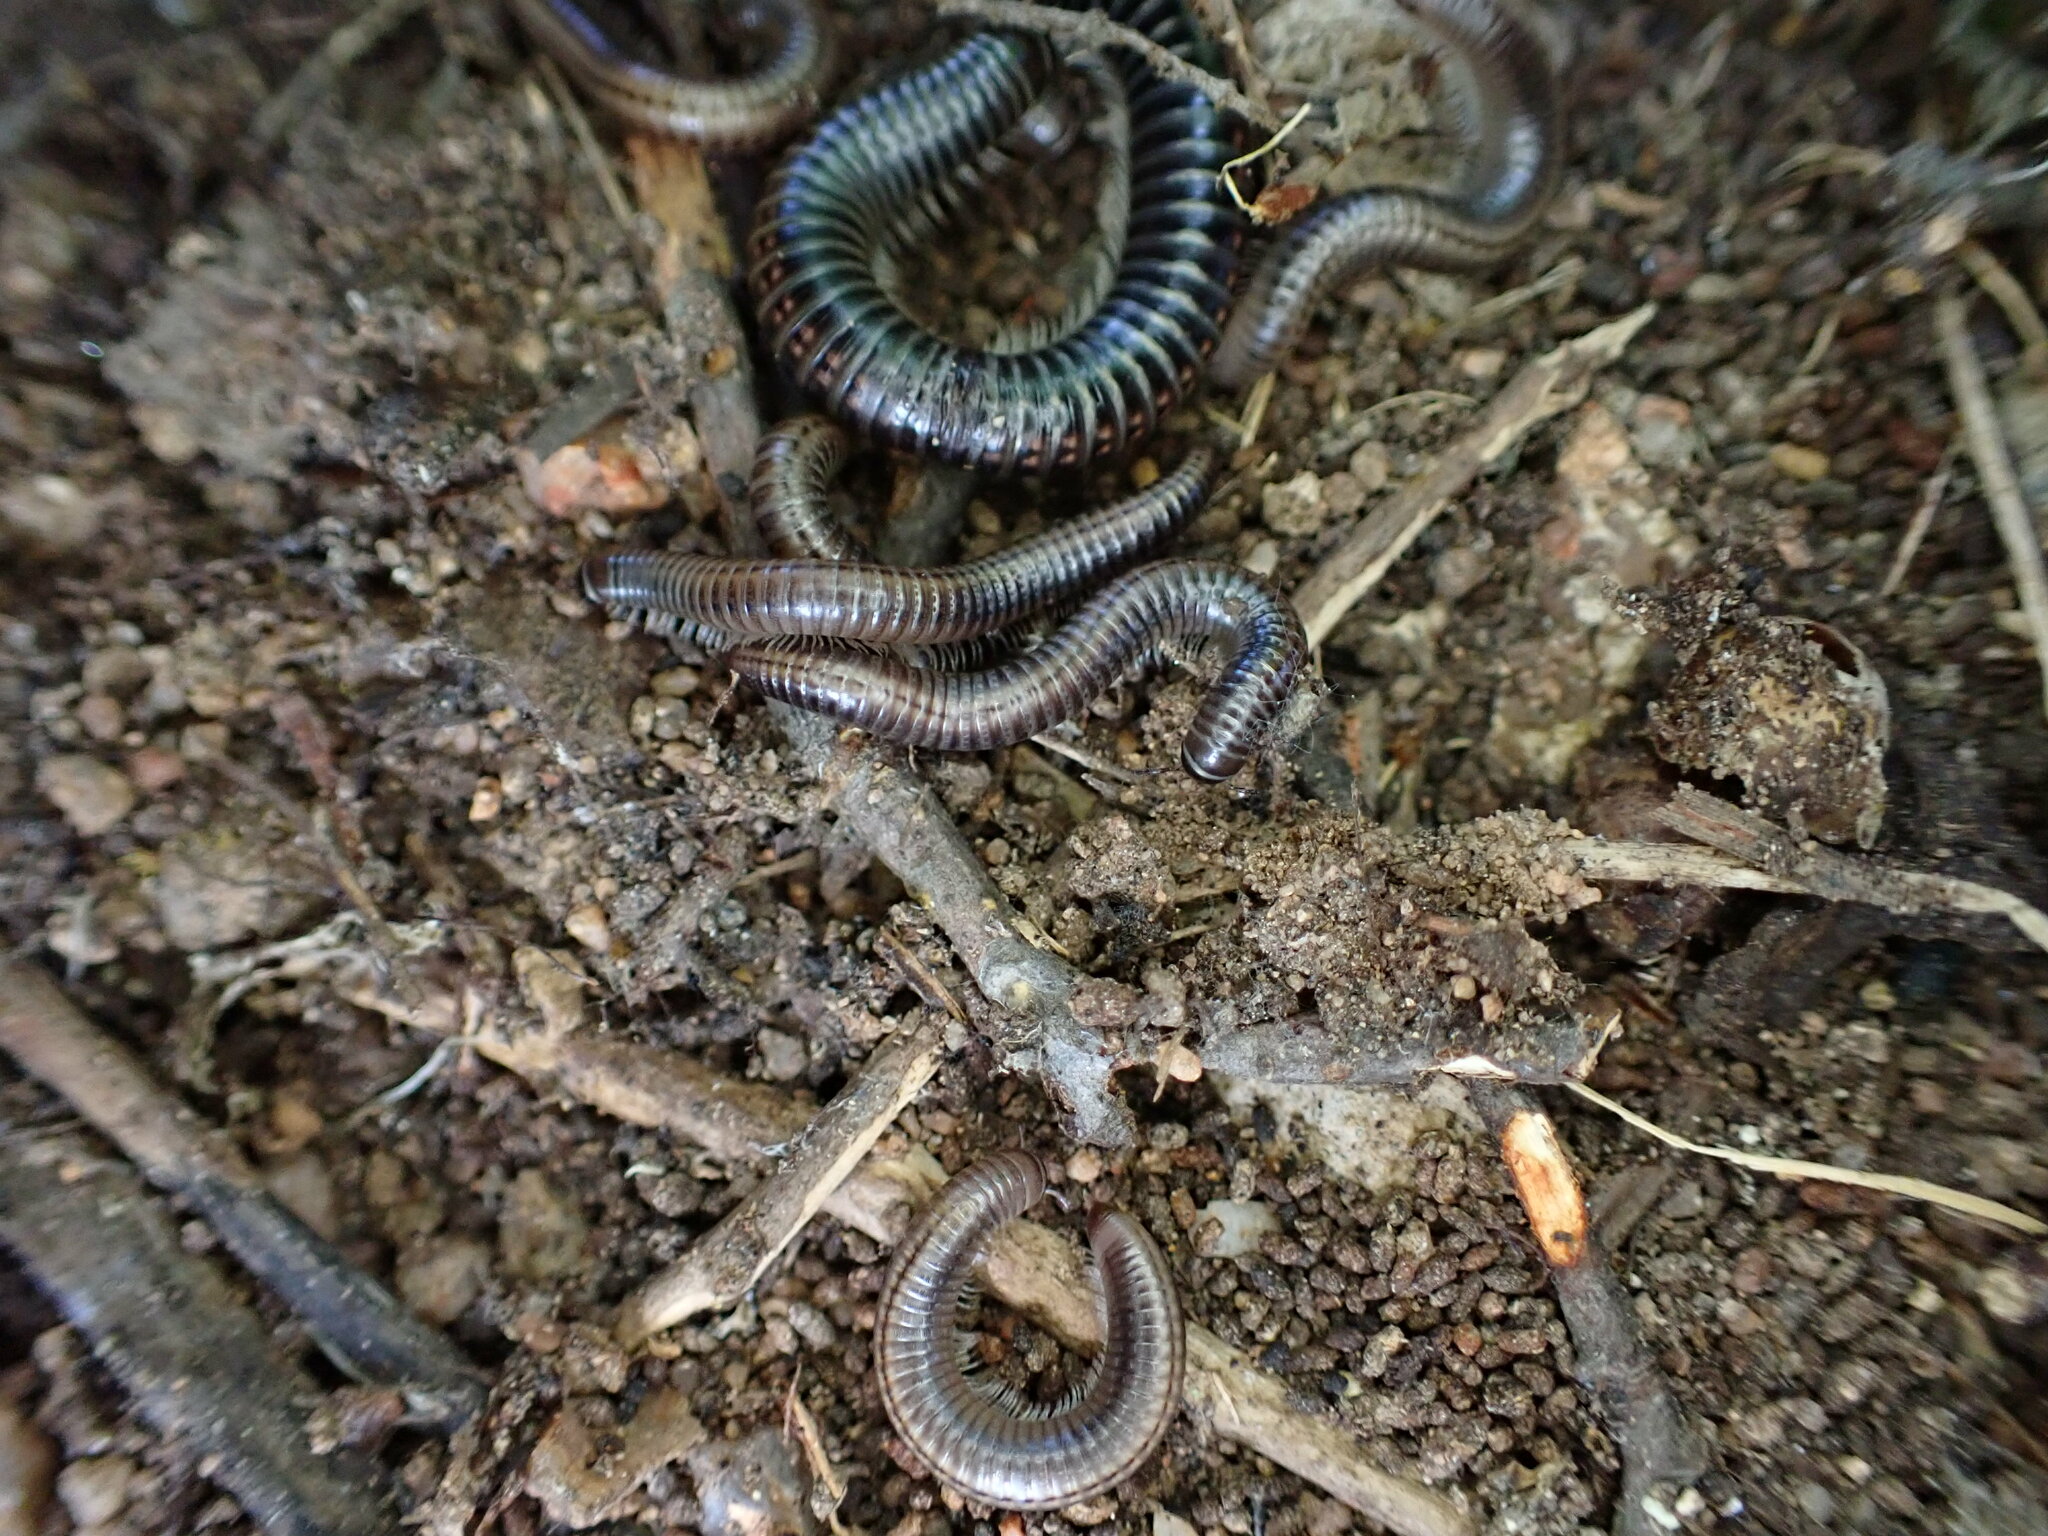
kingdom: Animalia
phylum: Arthropoda
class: Diplopoda
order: Julida
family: Julidae
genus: Ommatoiulus
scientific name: Ommatoiulus sabulosus
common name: Striped millipede
